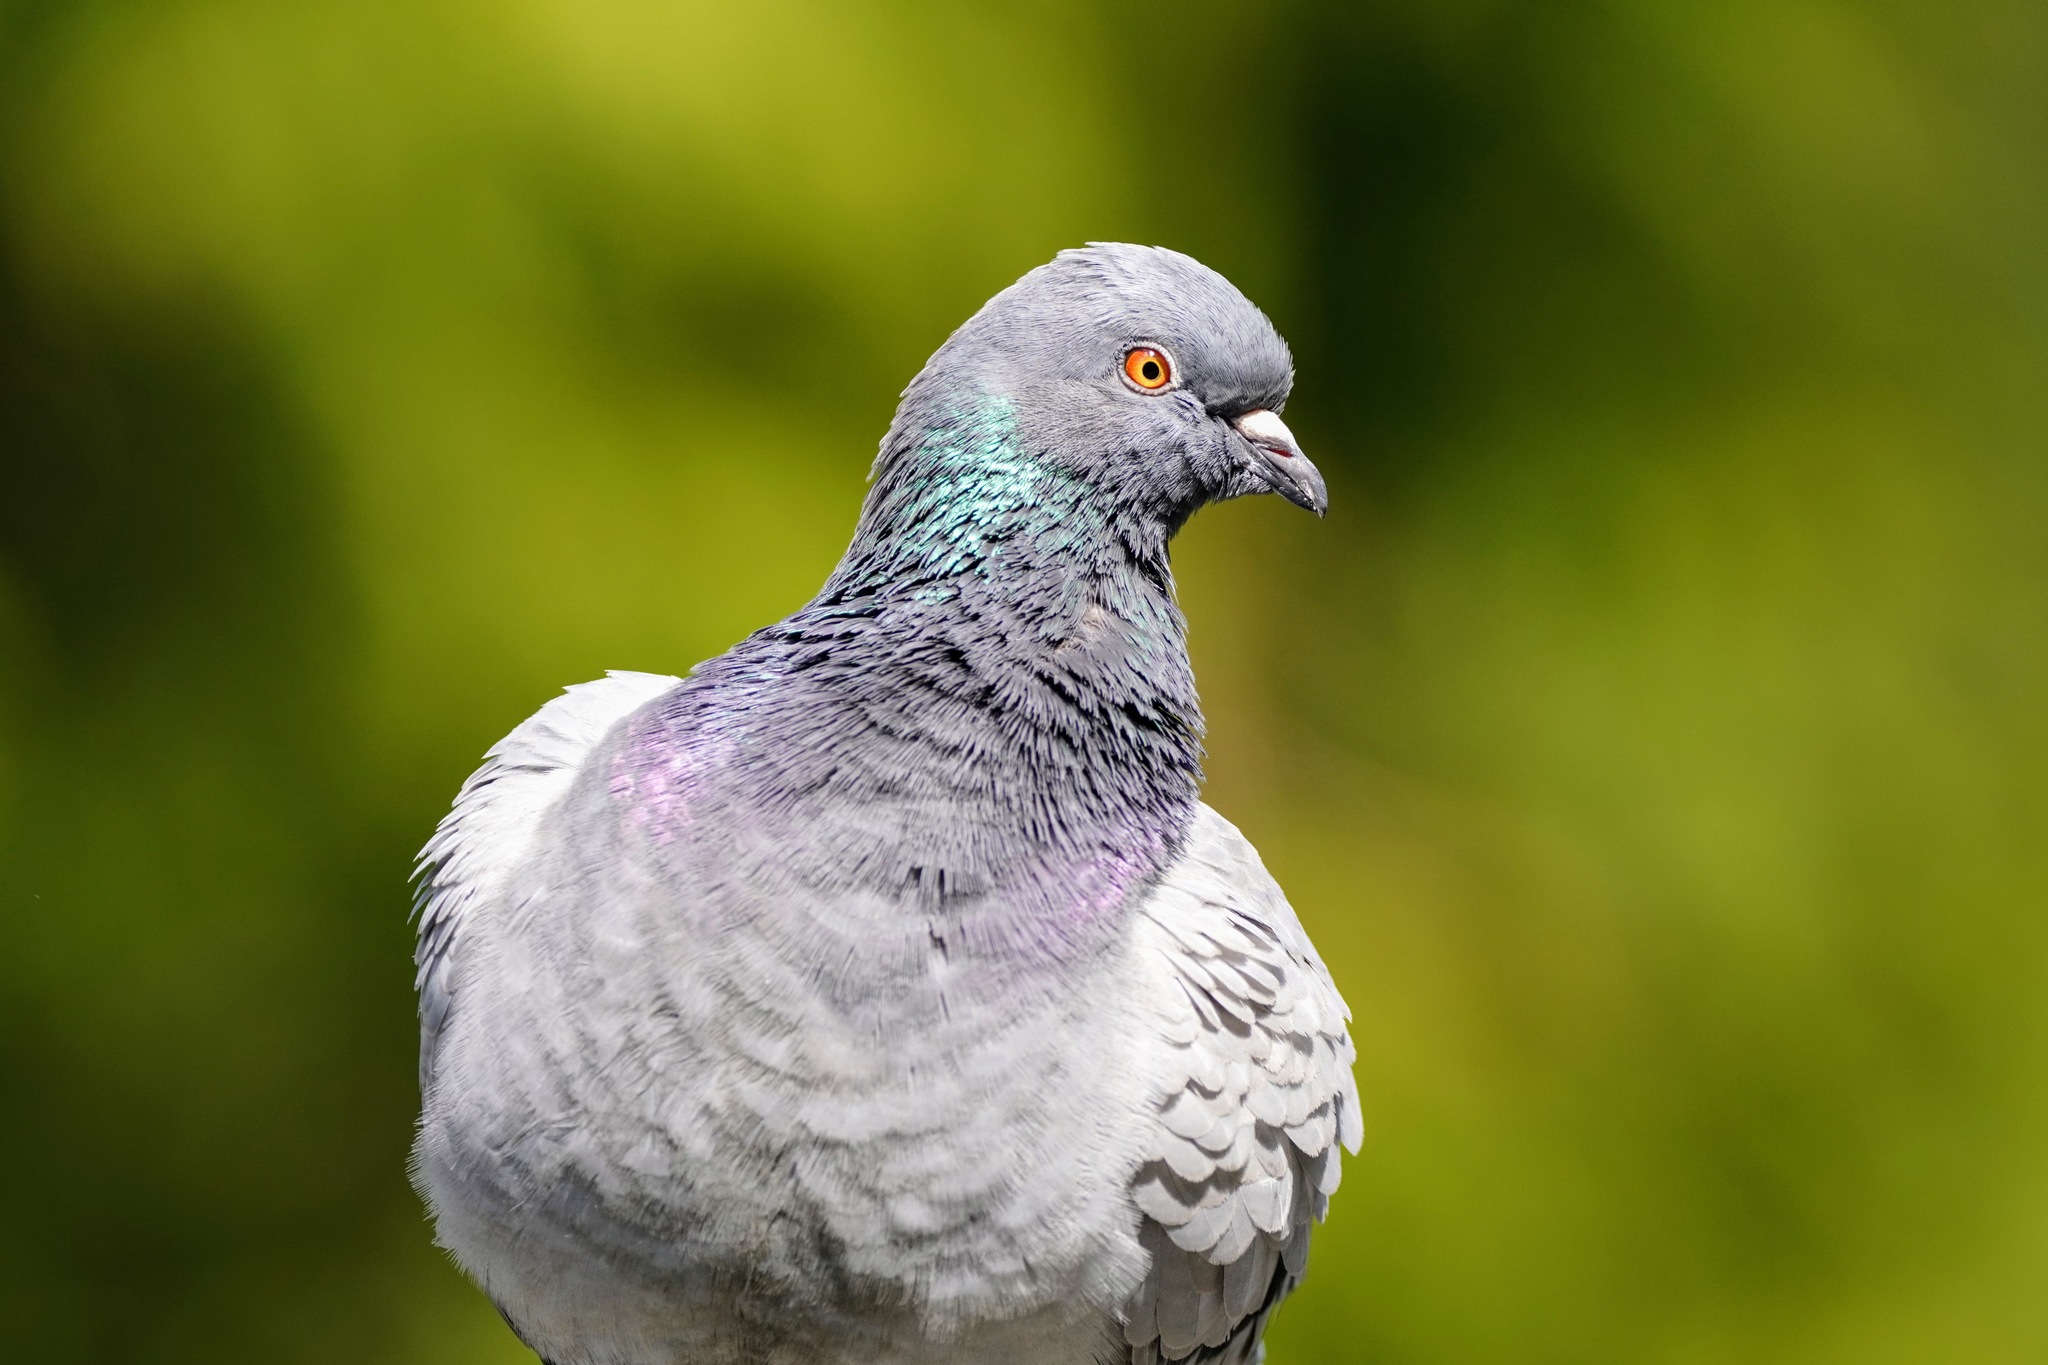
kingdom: Animalia
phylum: Chordata
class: Aves
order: Columbiformes
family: Columbidae
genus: Columba
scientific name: Columba livia
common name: Rock pigeon
